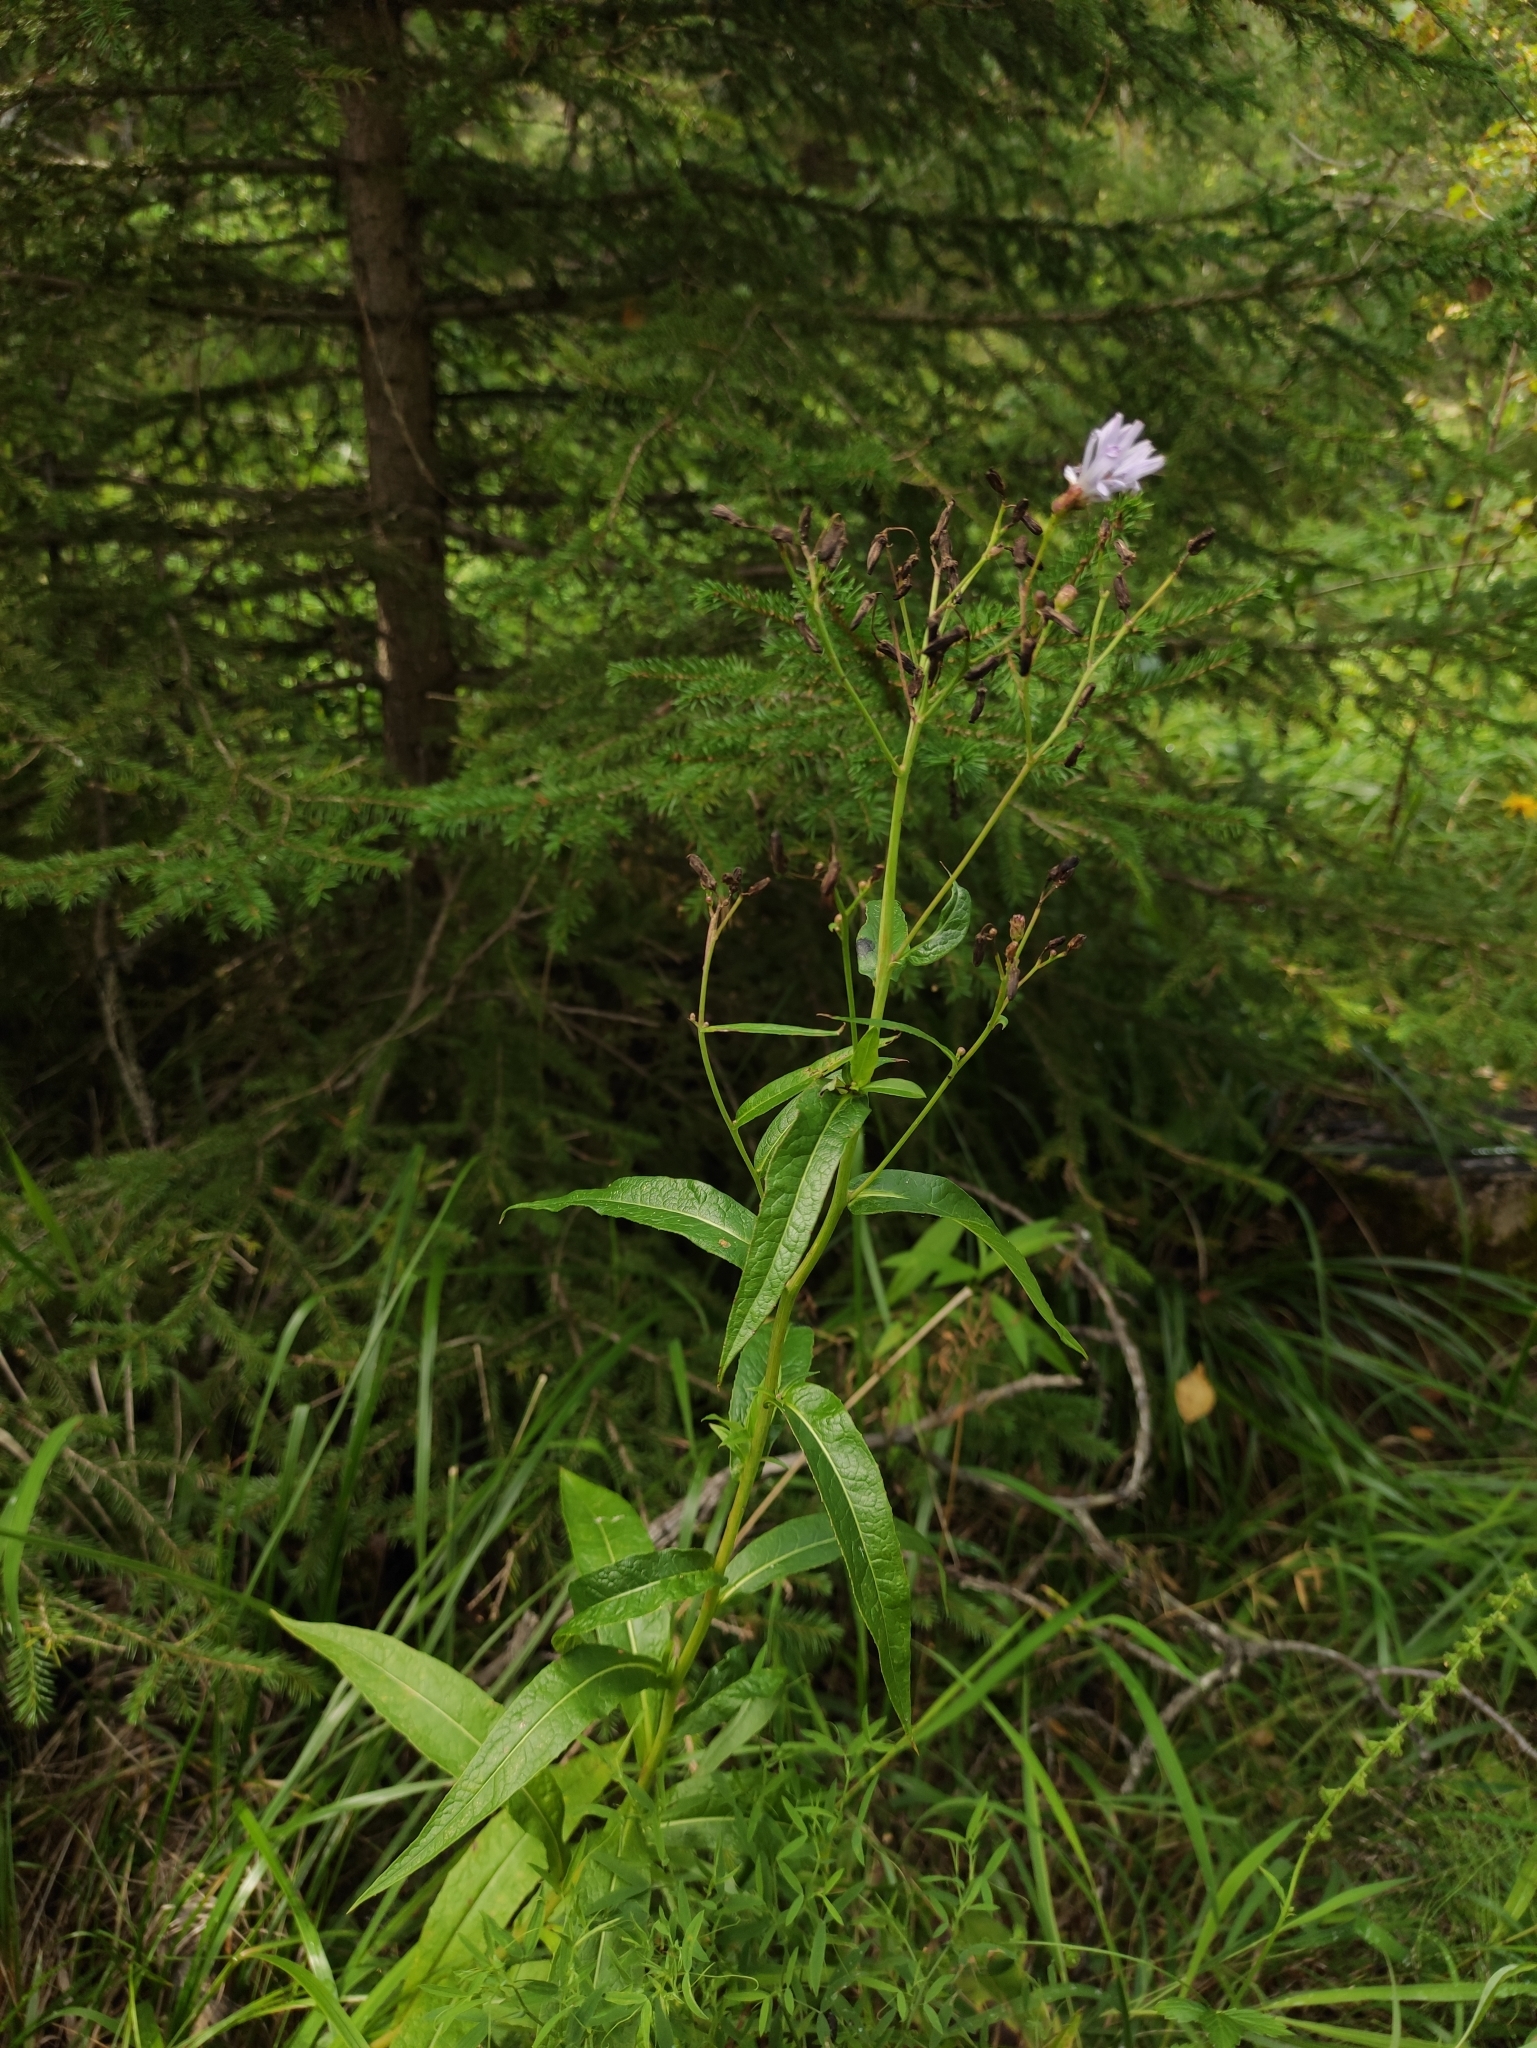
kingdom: Plantae
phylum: Tracheophyta
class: Magnoliopsida
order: Asterales
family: Asteraceae
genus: Lactuca
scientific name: Lactuca sibirica
